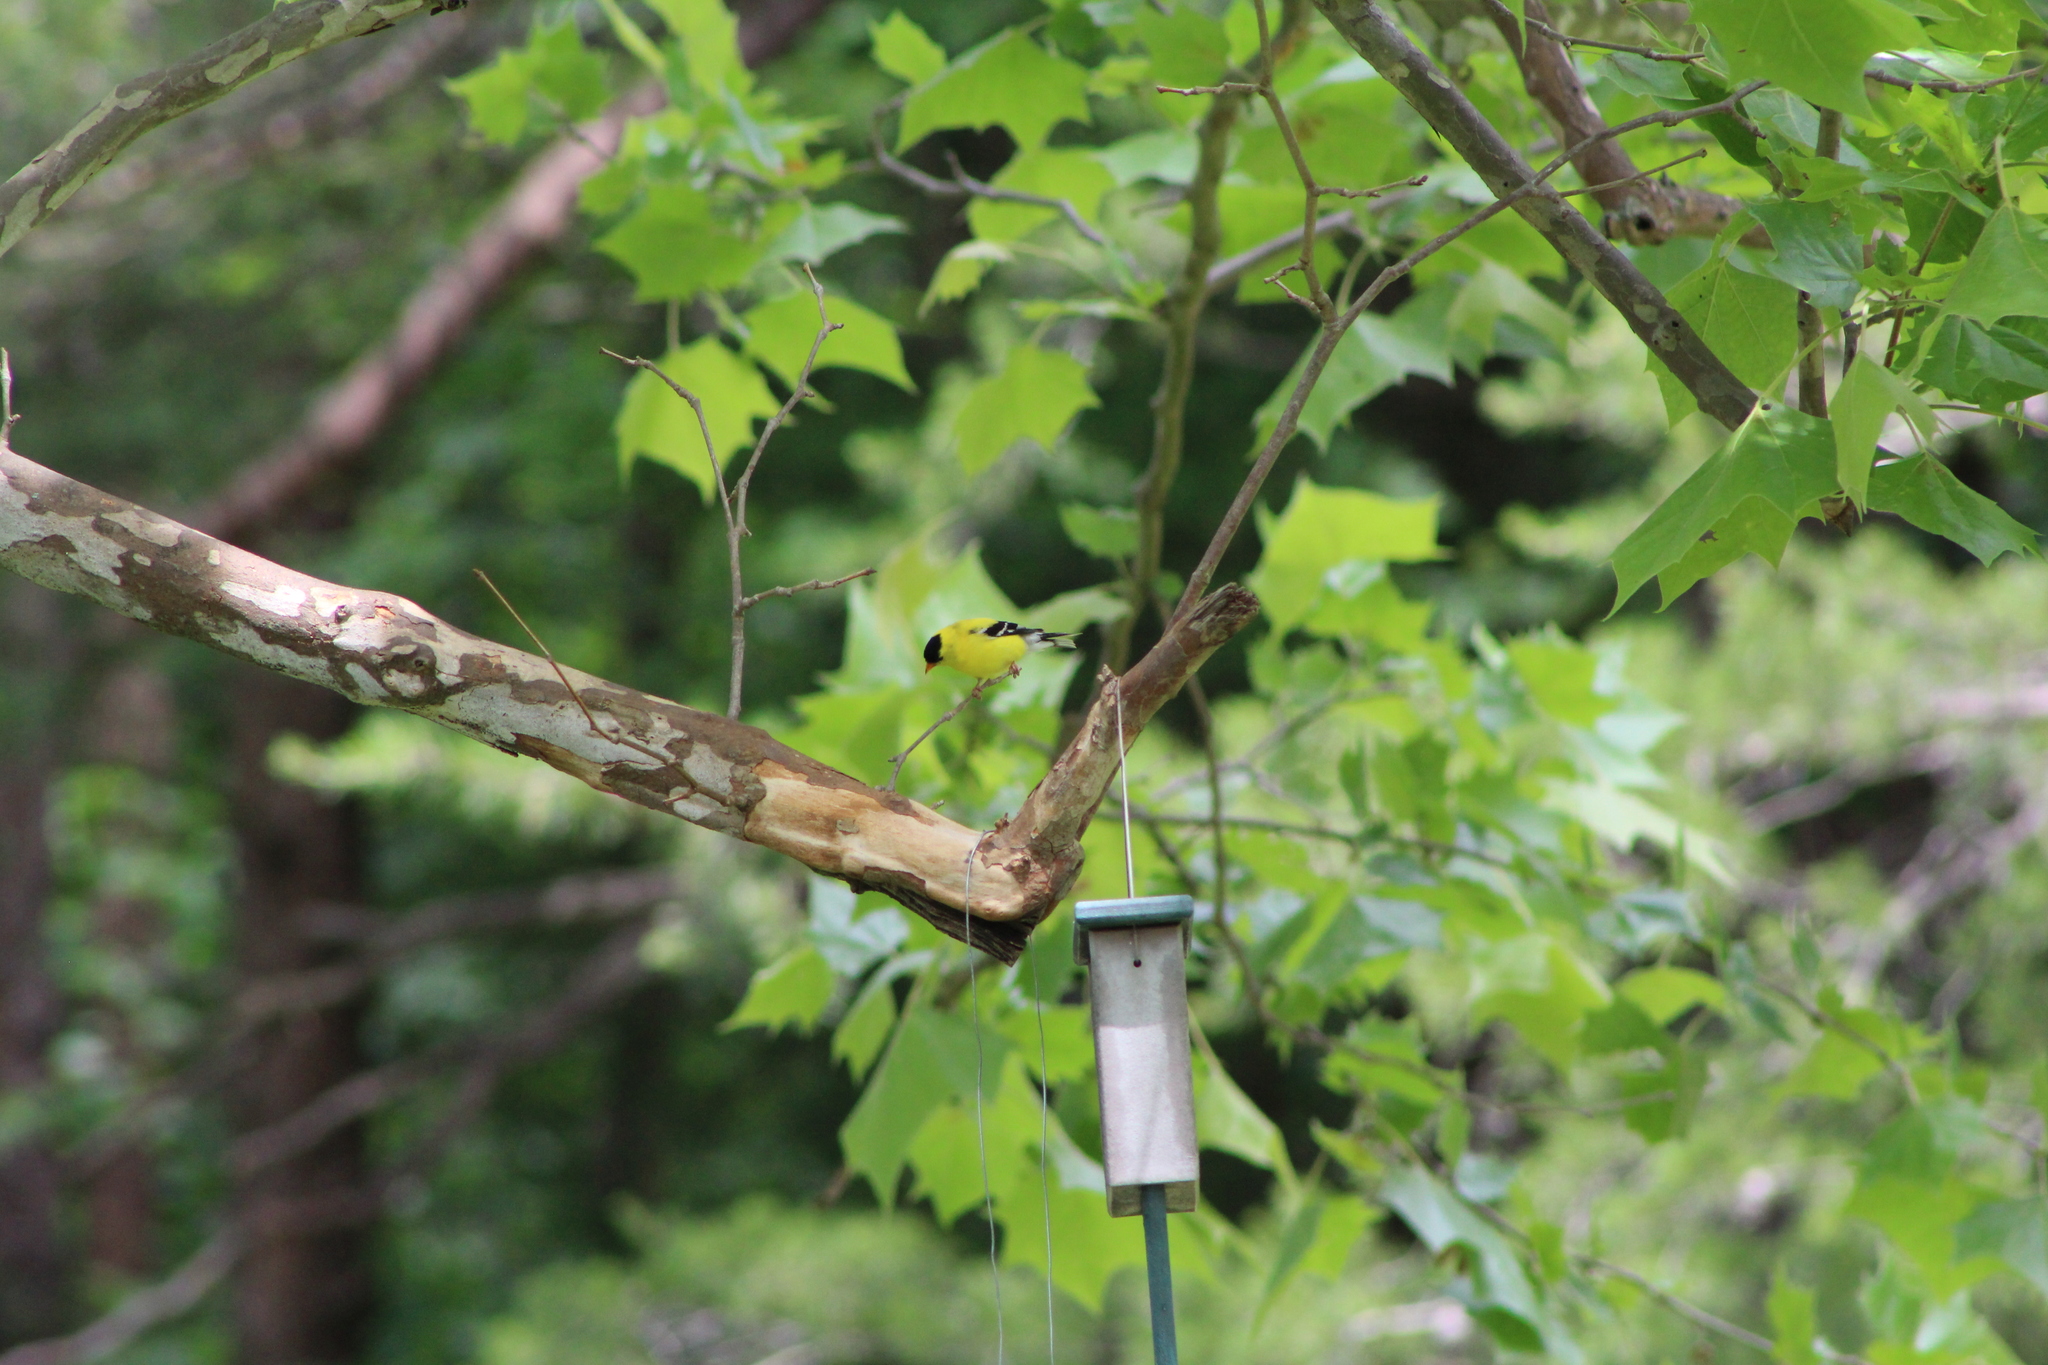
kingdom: Animalia
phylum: Chordata
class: Aves
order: Passeriformes
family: Fringillidae
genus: Spinus
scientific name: Spinus tristis
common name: American goldfinch
